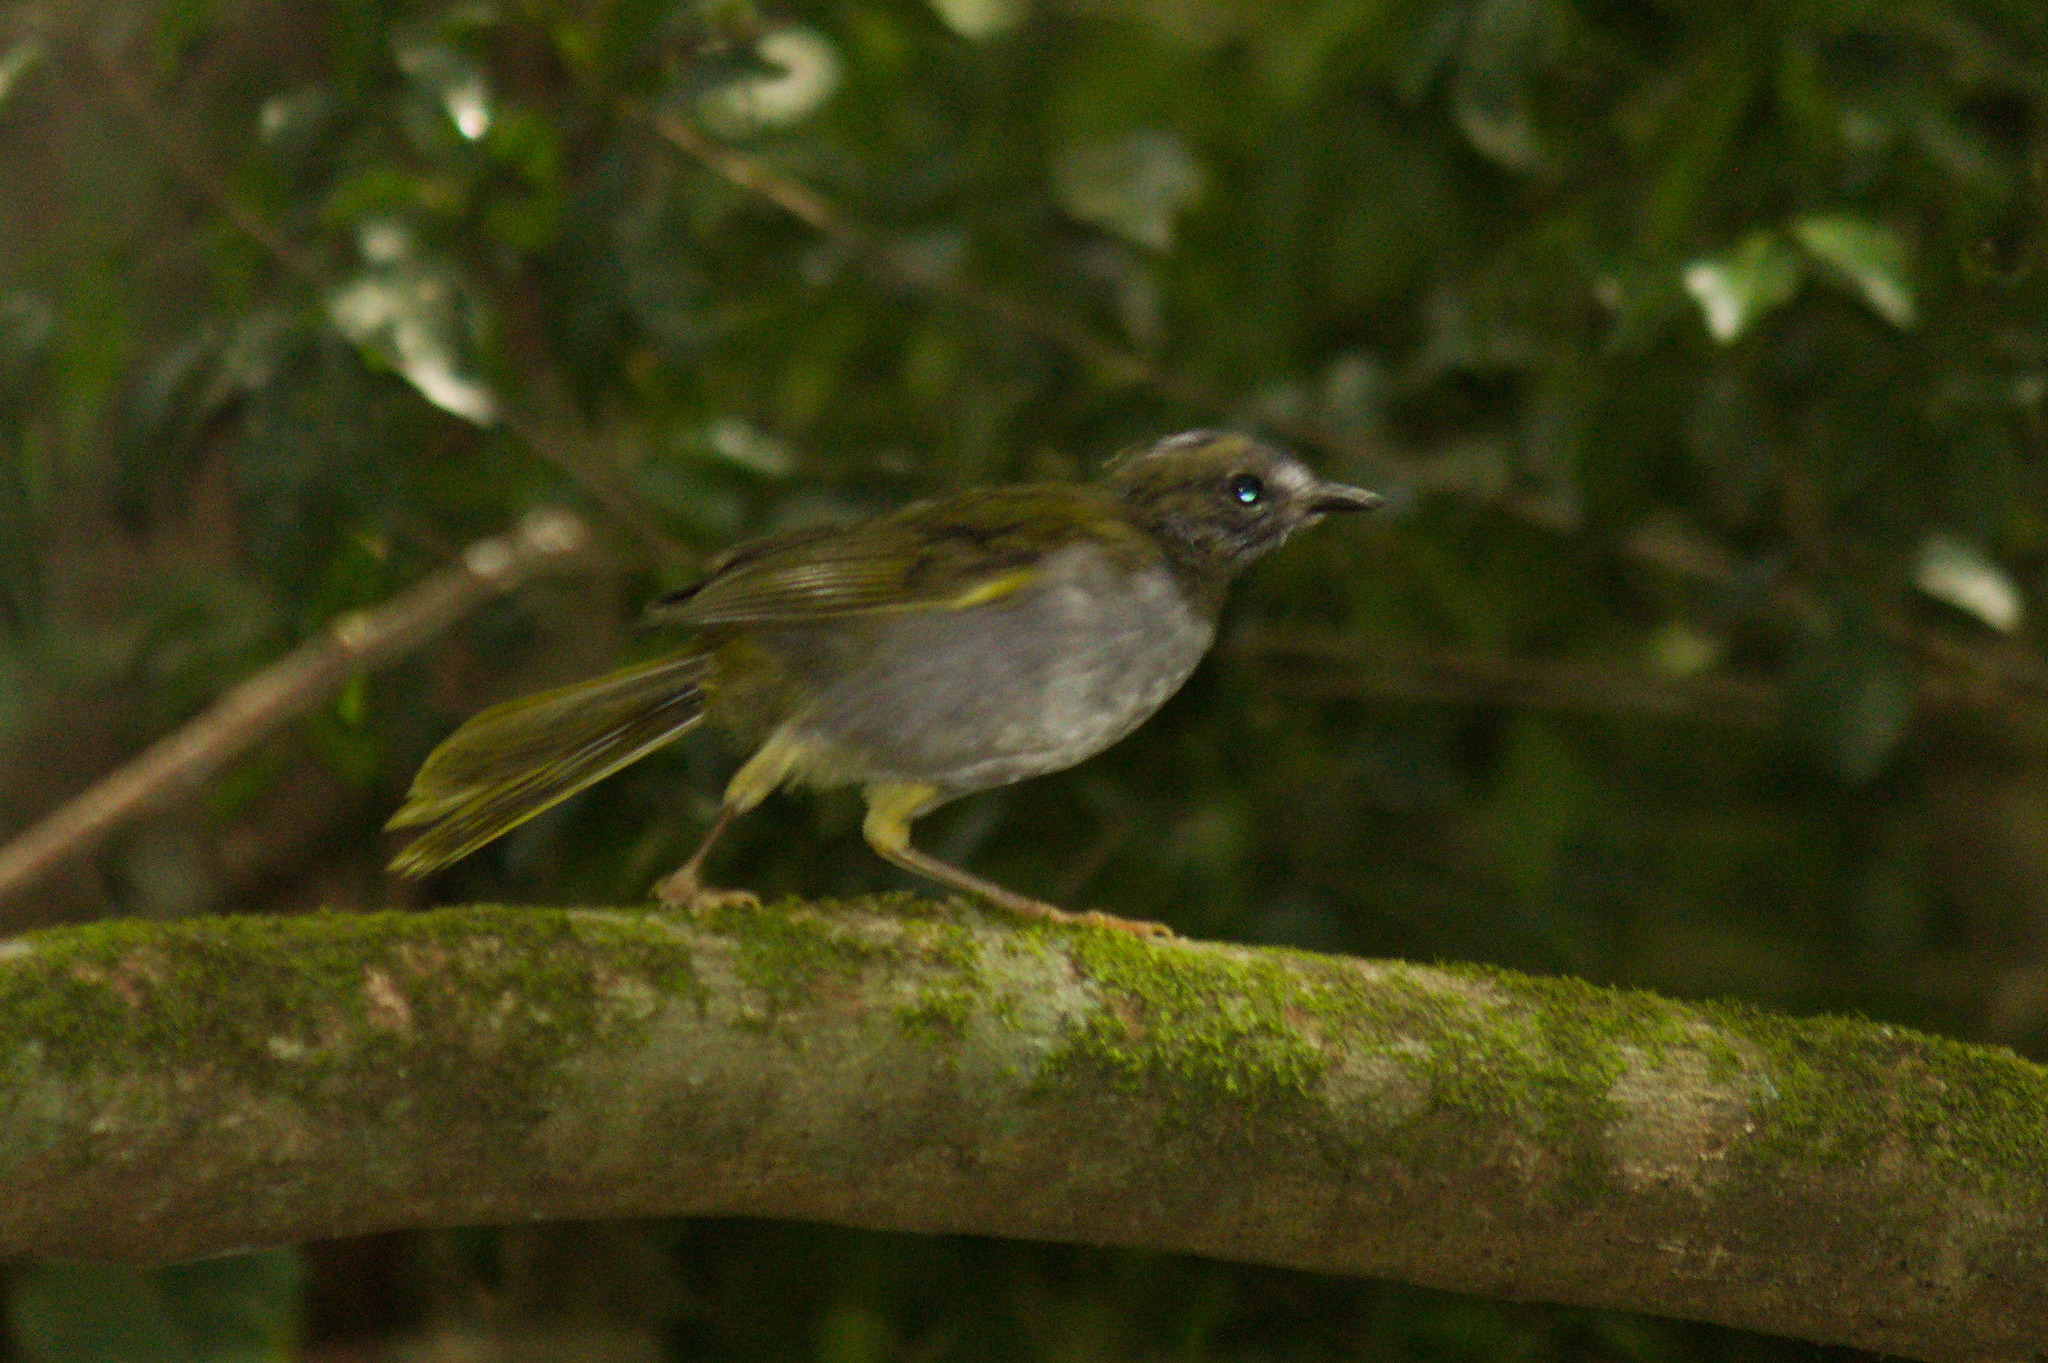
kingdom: Animalia
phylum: Chordata
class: Aves
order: Passeriformes
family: Parulidae
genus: Myiothlypis
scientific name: Myiothlypis leucoblephara
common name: White-rimmed warbler
